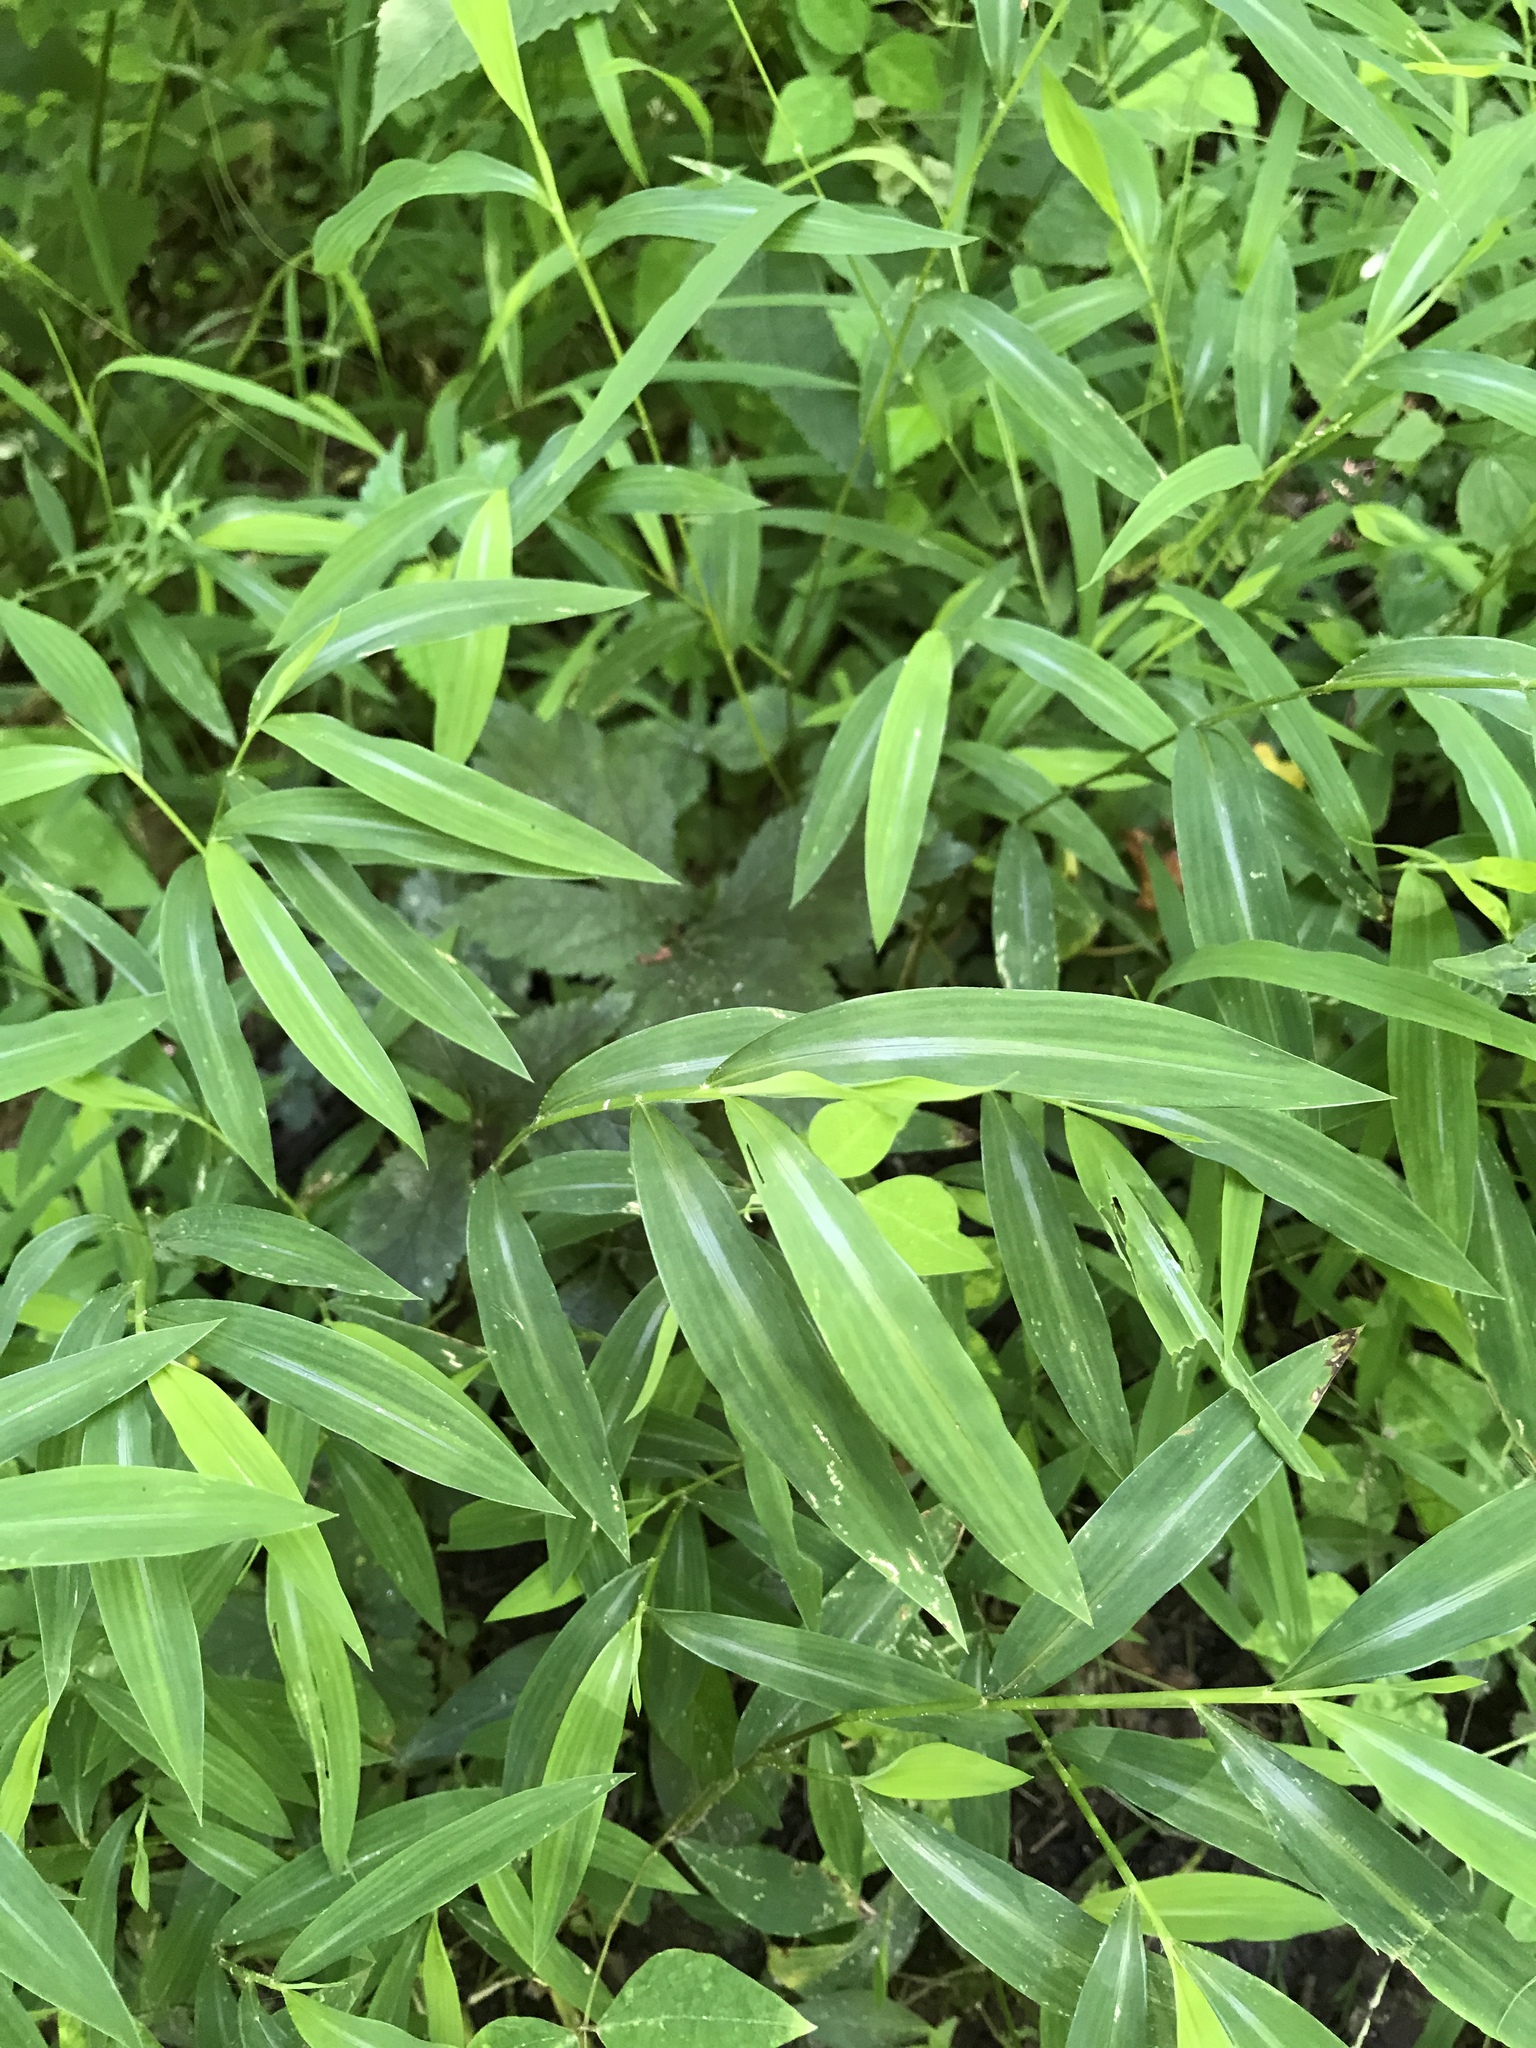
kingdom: Plantae
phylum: Tracheophyta
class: Liliopsida
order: Poales
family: Poaceae
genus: Microstegium
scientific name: Microstegium vimineum
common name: Japanese stiltgrass
